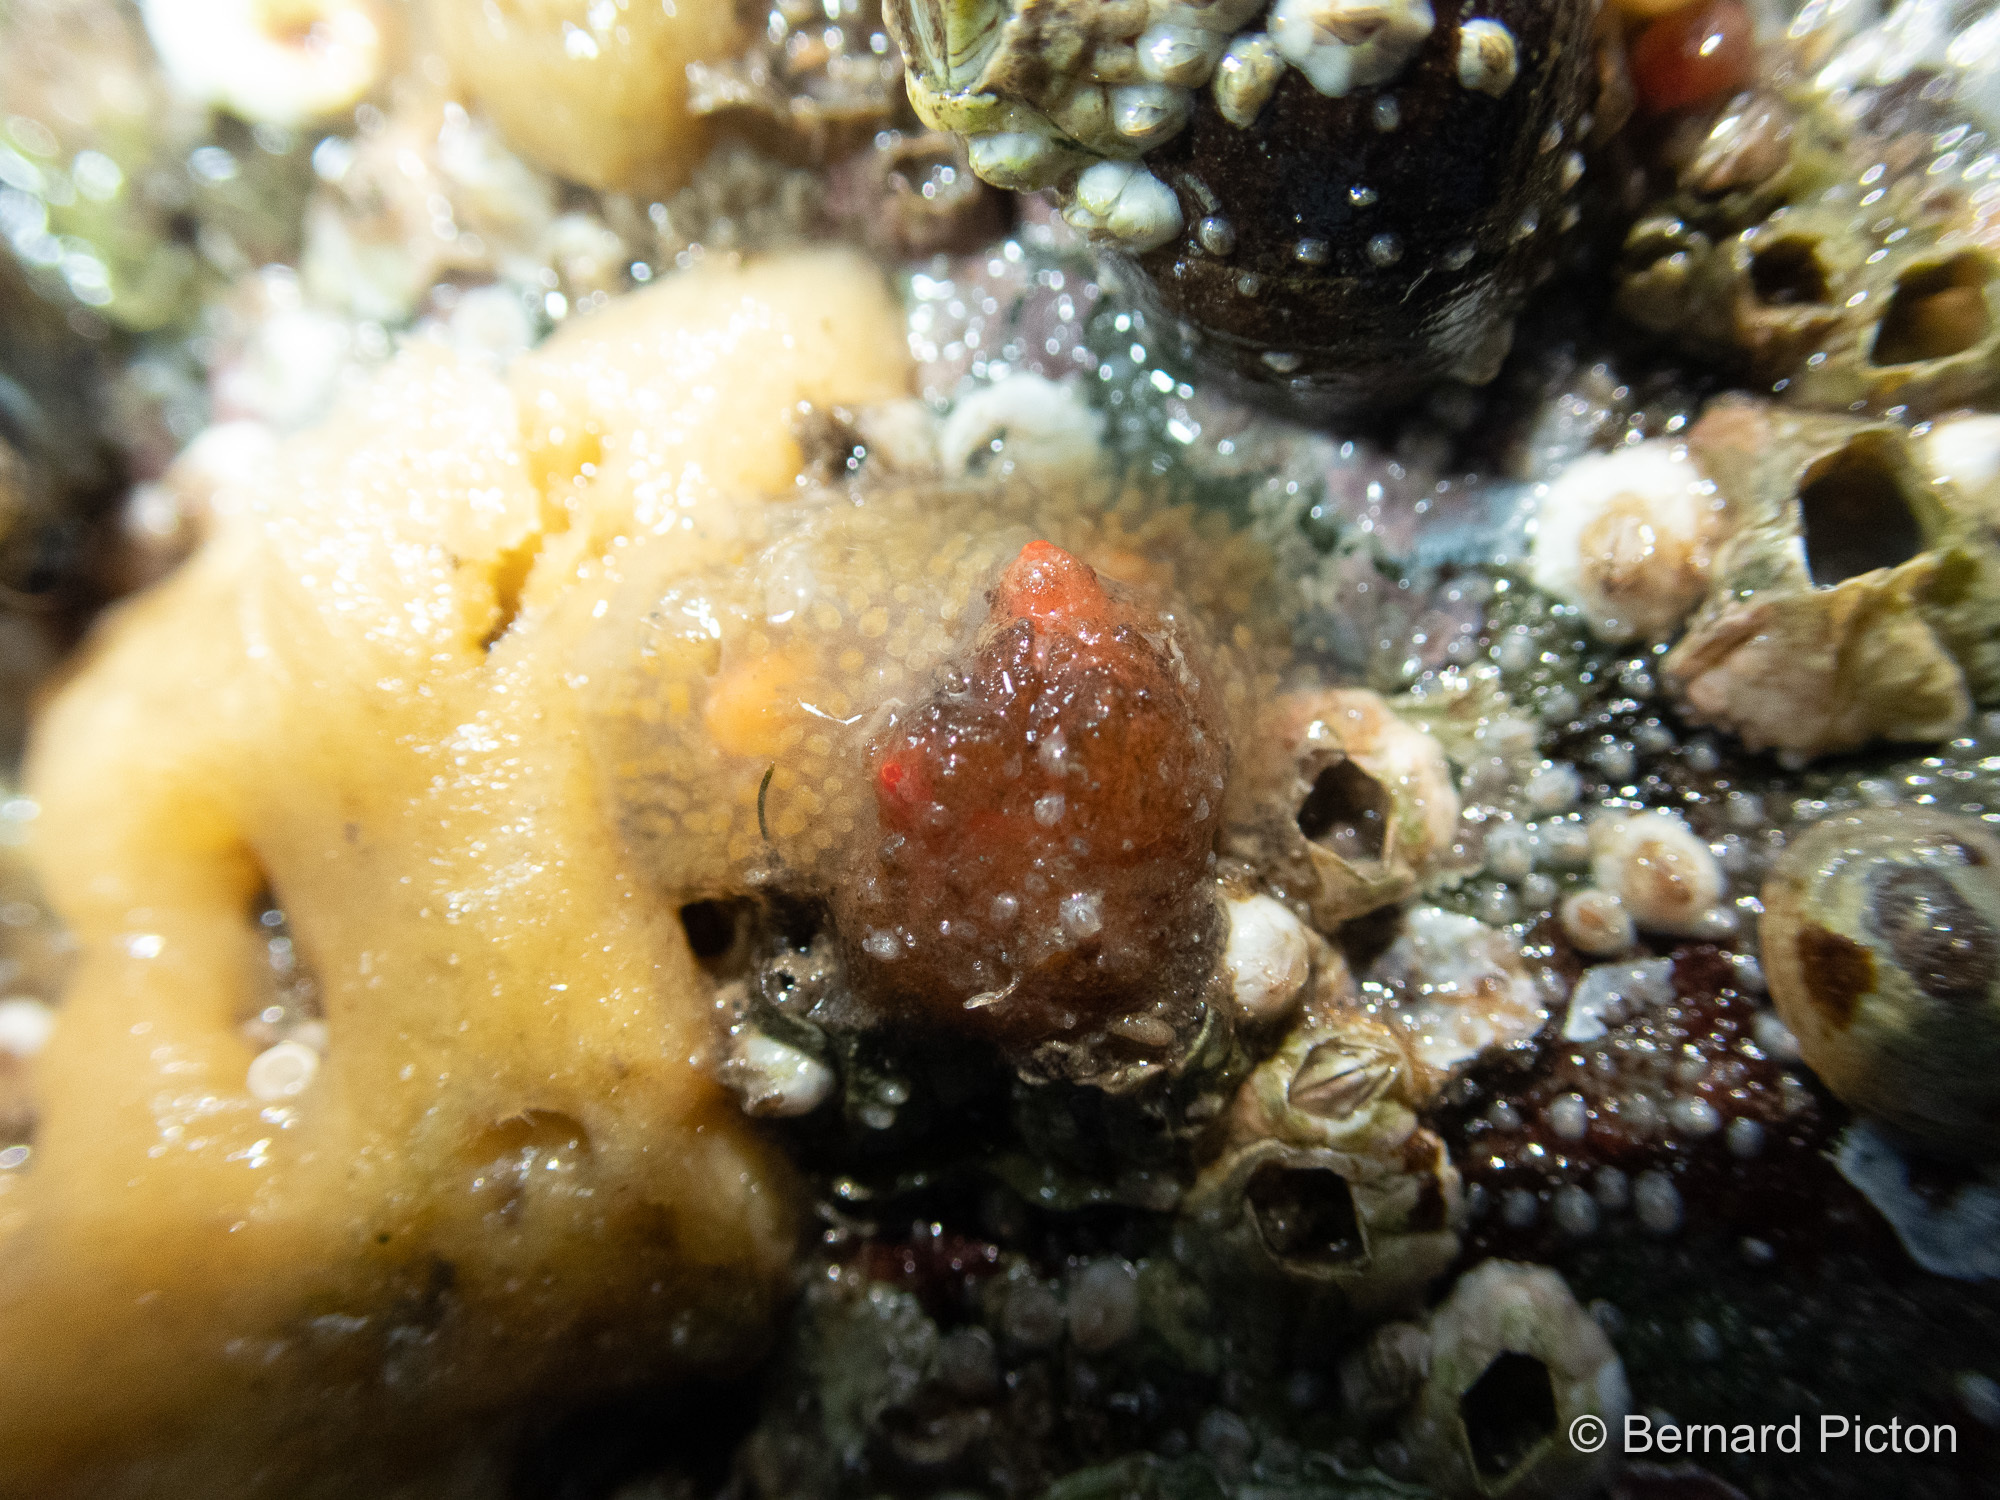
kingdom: Animalia
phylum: Chordata
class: Ascidiacea
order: Stolidobranchia
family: Styelidae
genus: Polycarpa
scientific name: Polycarpa scuba
